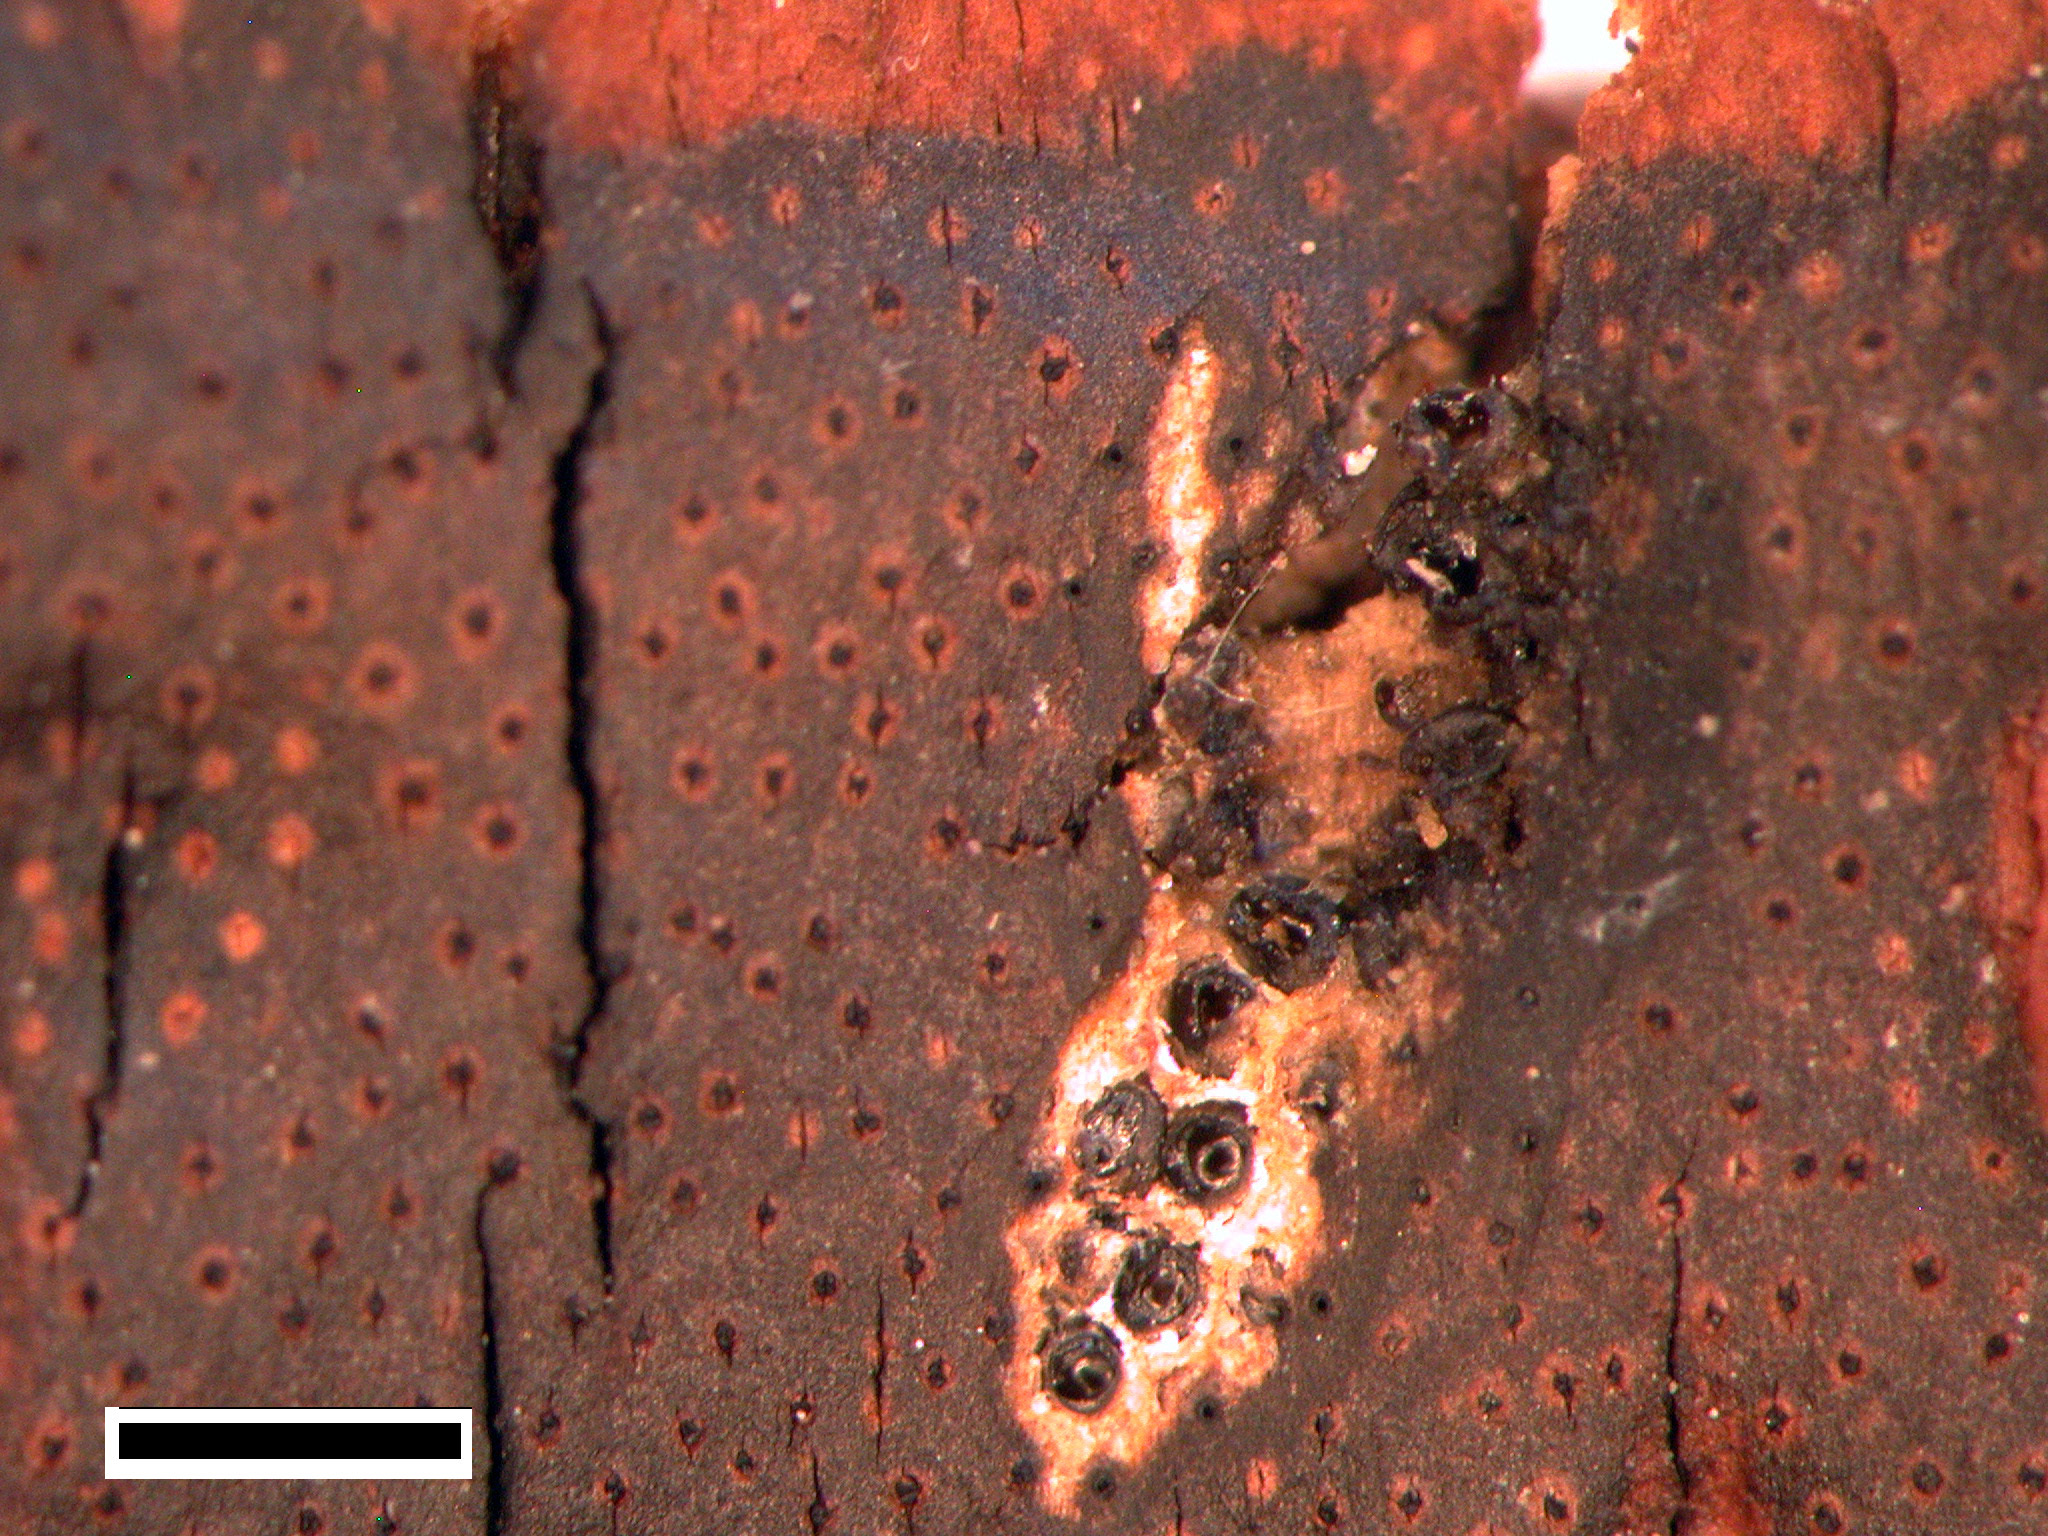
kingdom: Fungi
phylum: Ascomycota
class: Sordariomycetes
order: Xylariales
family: Diatrypaceae
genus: Diatrype
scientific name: Diatrype stigma
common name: Common tarcrust
